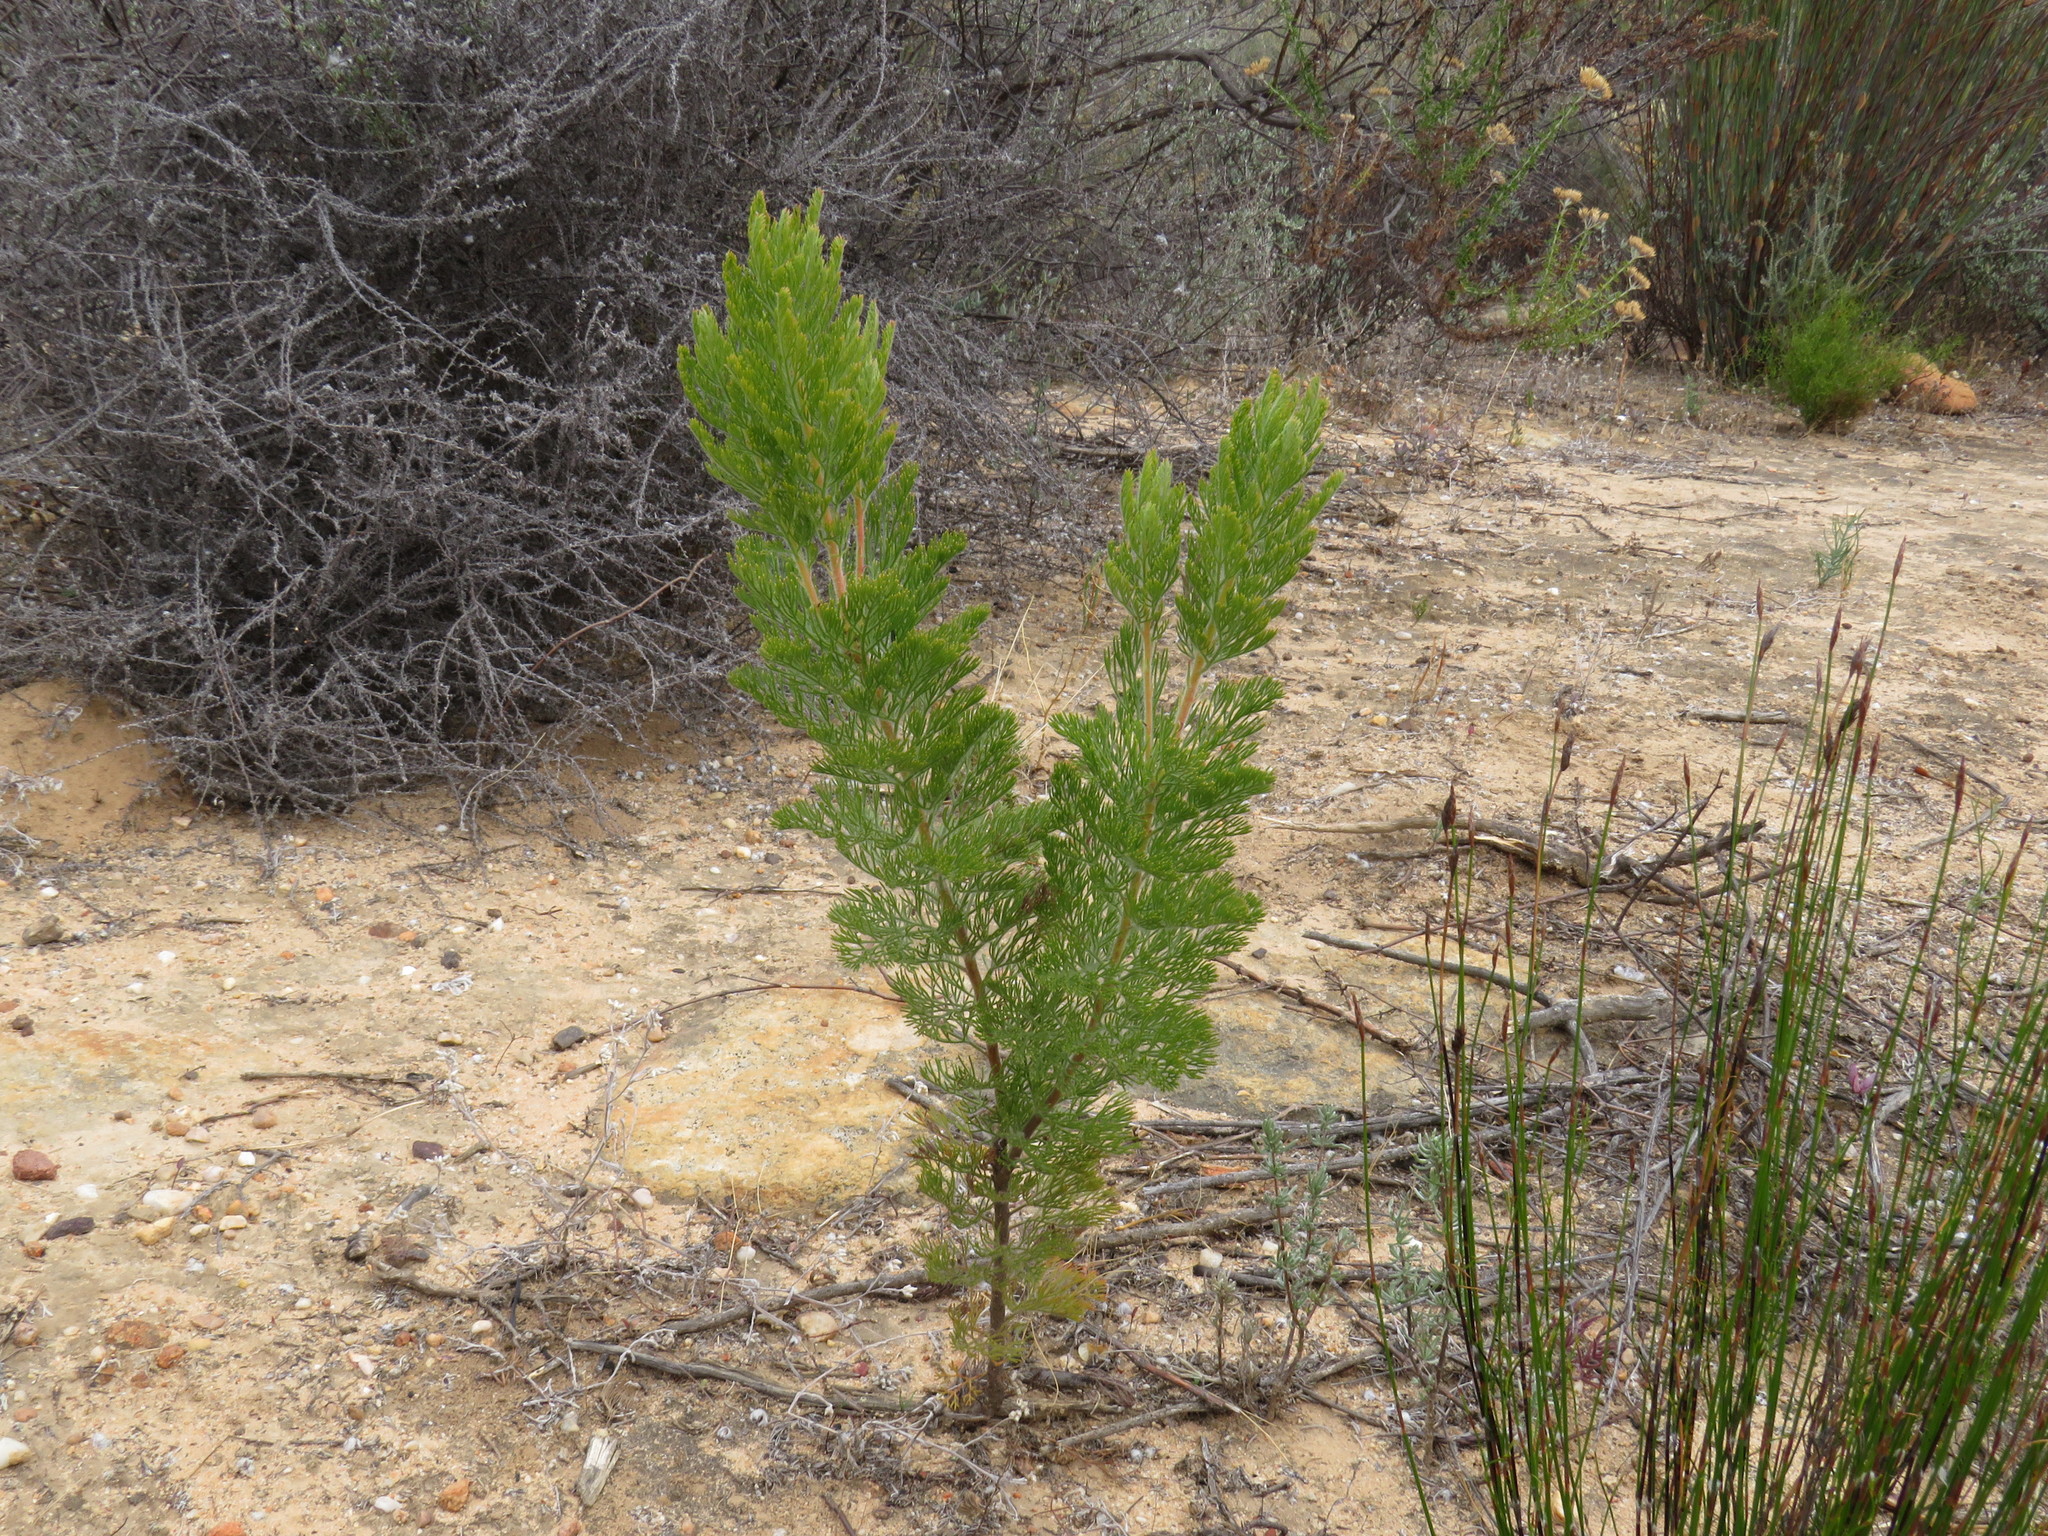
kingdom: Plantae
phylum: Tracheophyta
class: Magnoliopsida
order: Proteales
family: Proteaceae
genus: Serruria
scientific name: Serruria pedunculata
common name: Fan-leaf spiderhead
